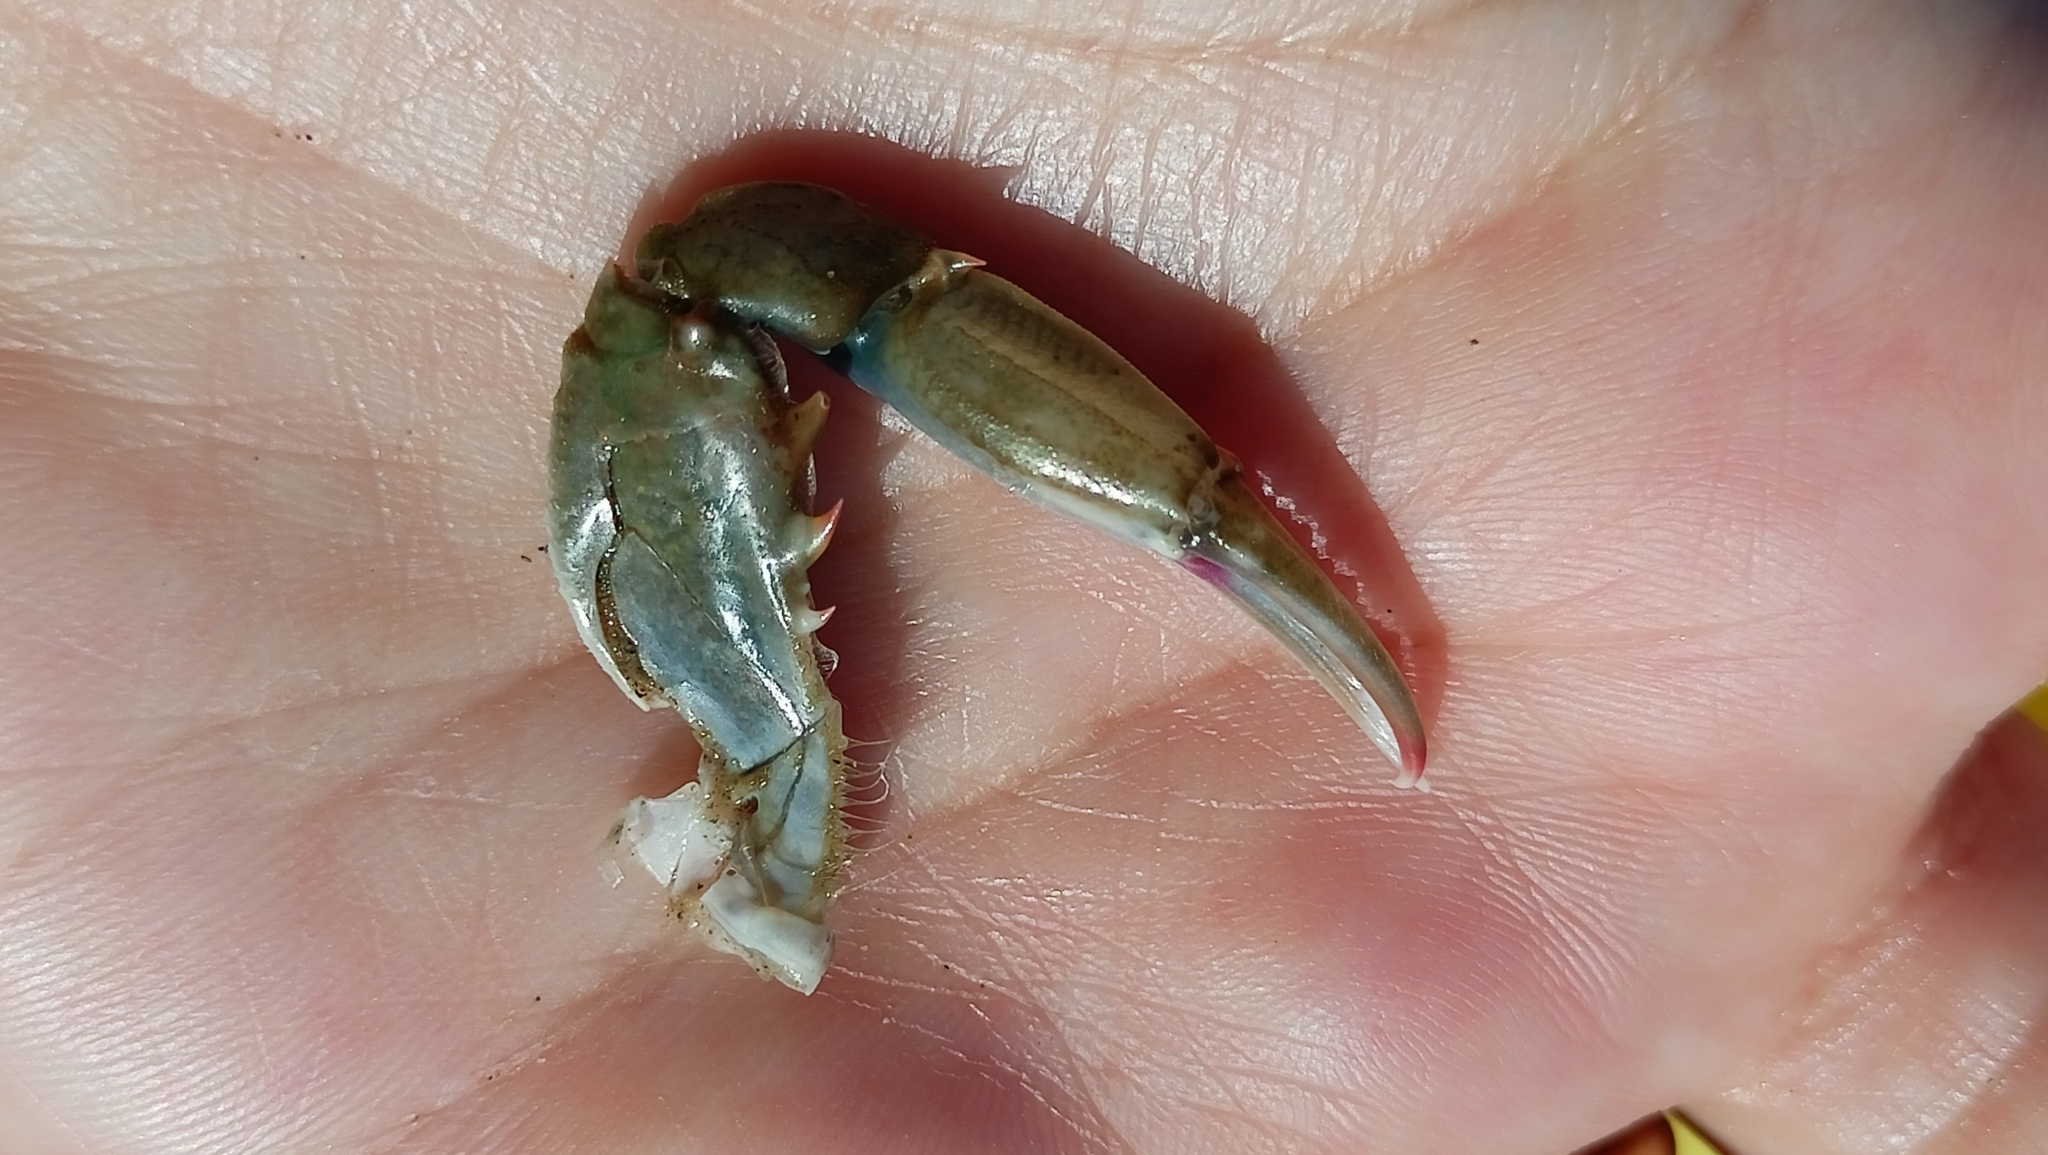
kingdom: Animalia
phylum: Arthropoda
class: Malacostraca
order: Decapoda
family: Portunidae
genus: Callinectes
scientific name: Callinectes sapidus
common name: Blue crab
